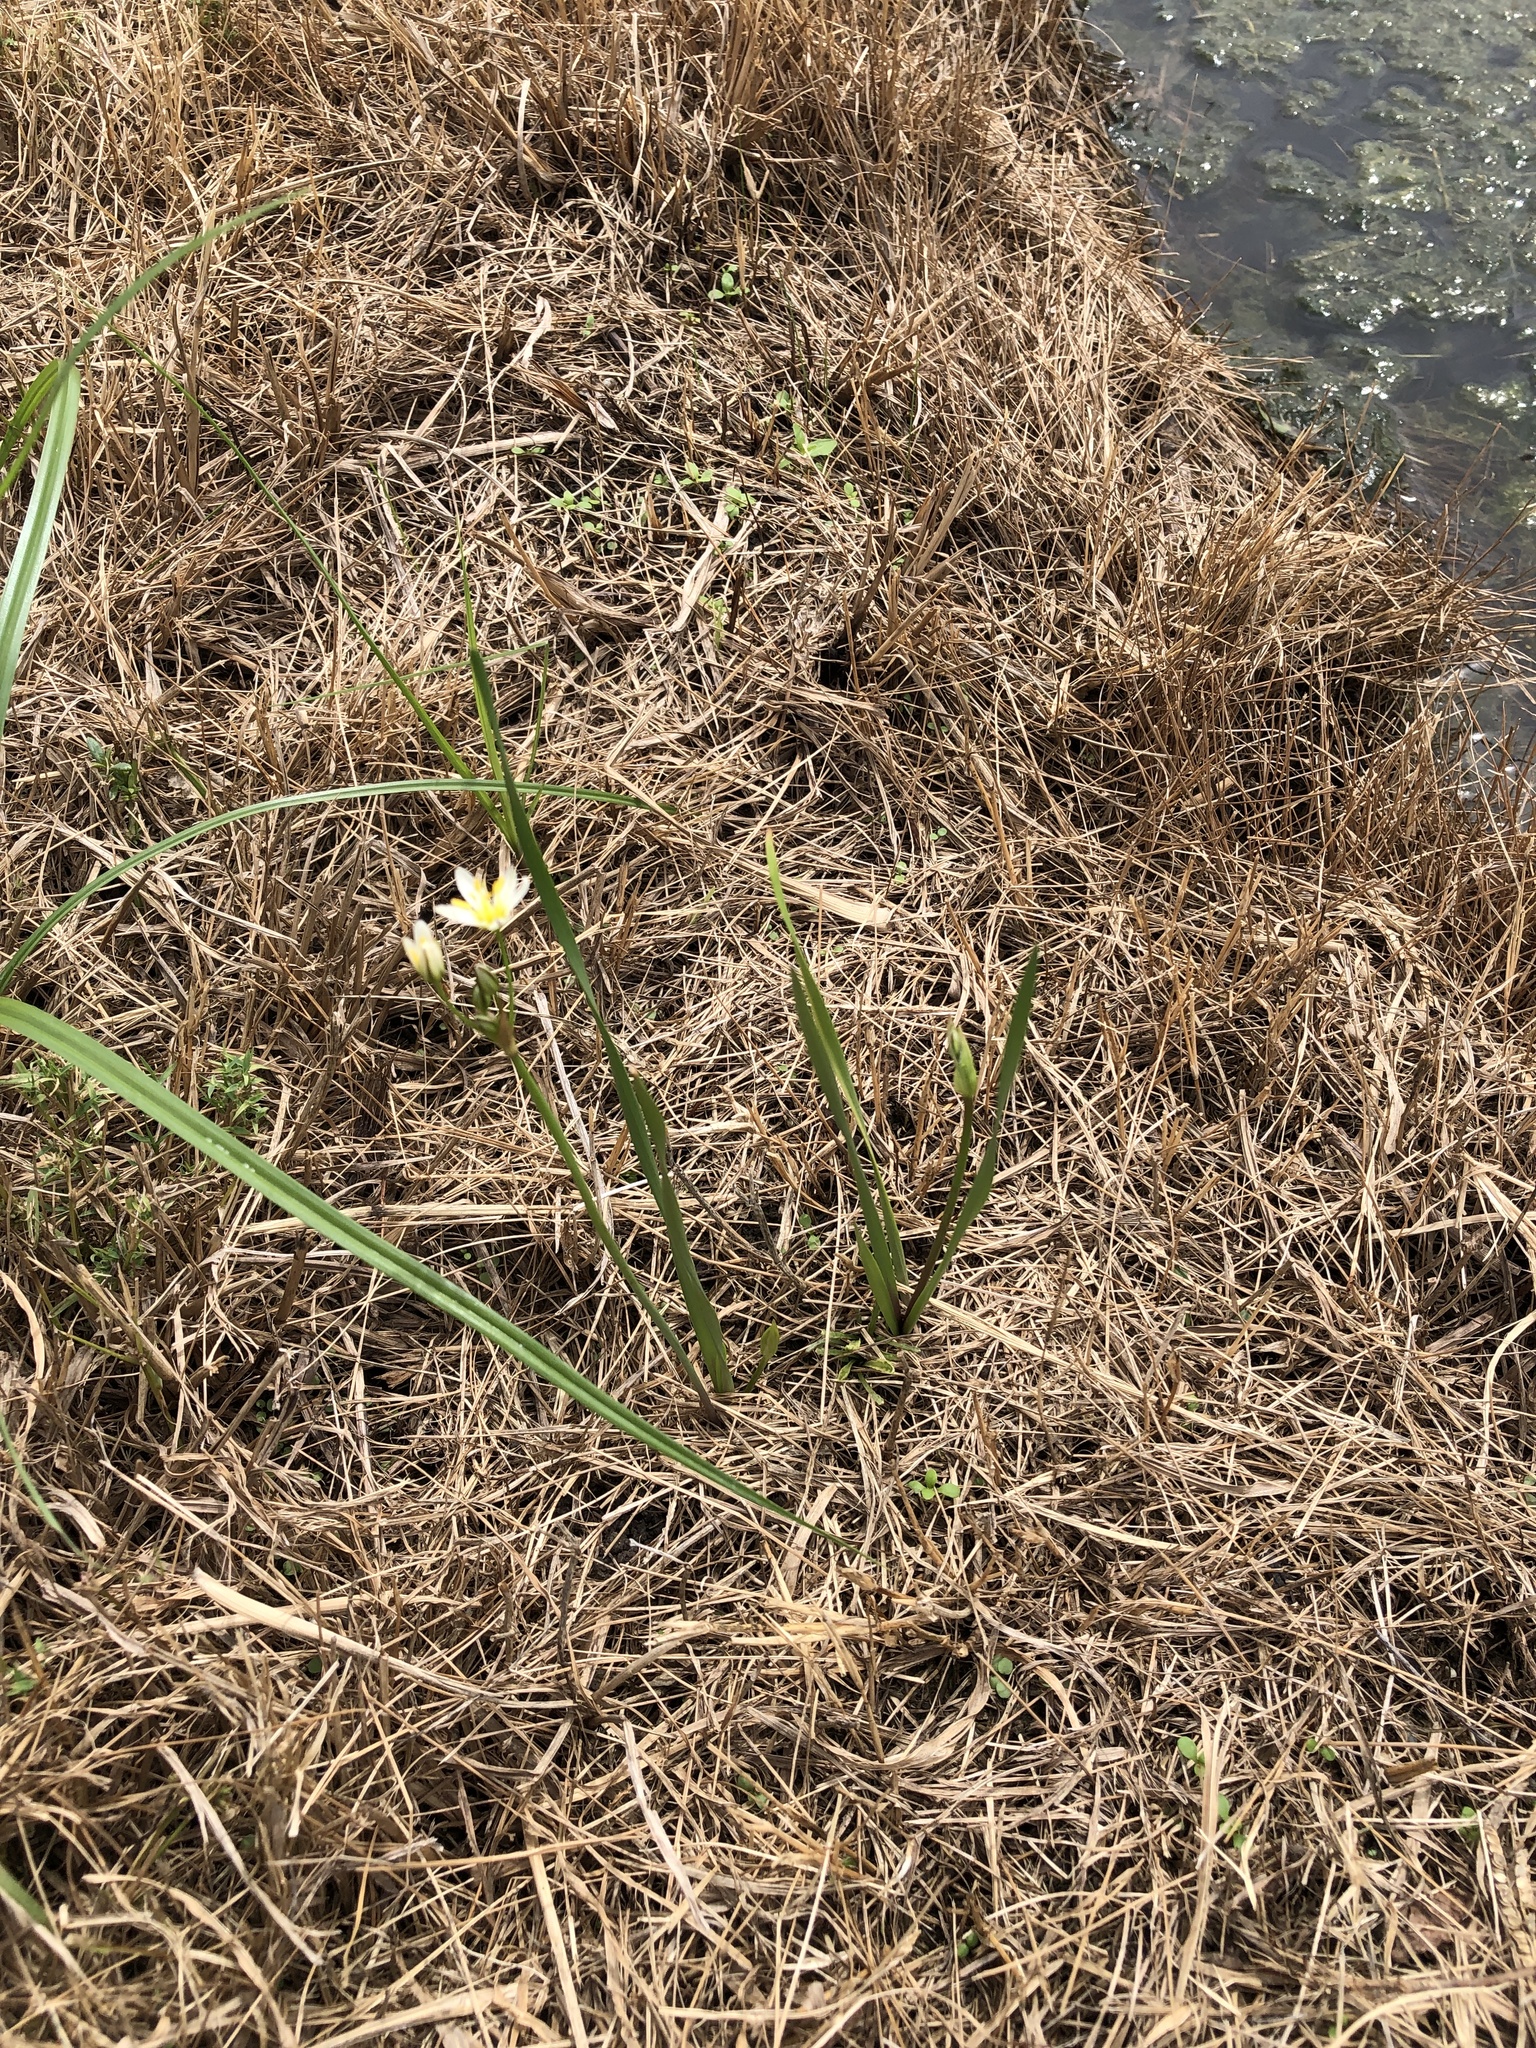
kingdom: Plantae
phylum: Tracheophyta
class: Liliopsida
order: Asparagales
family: Amaryllidaceae
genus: Nothoscordum
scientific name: Nothoscordum bivalve
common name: Crow-poison
